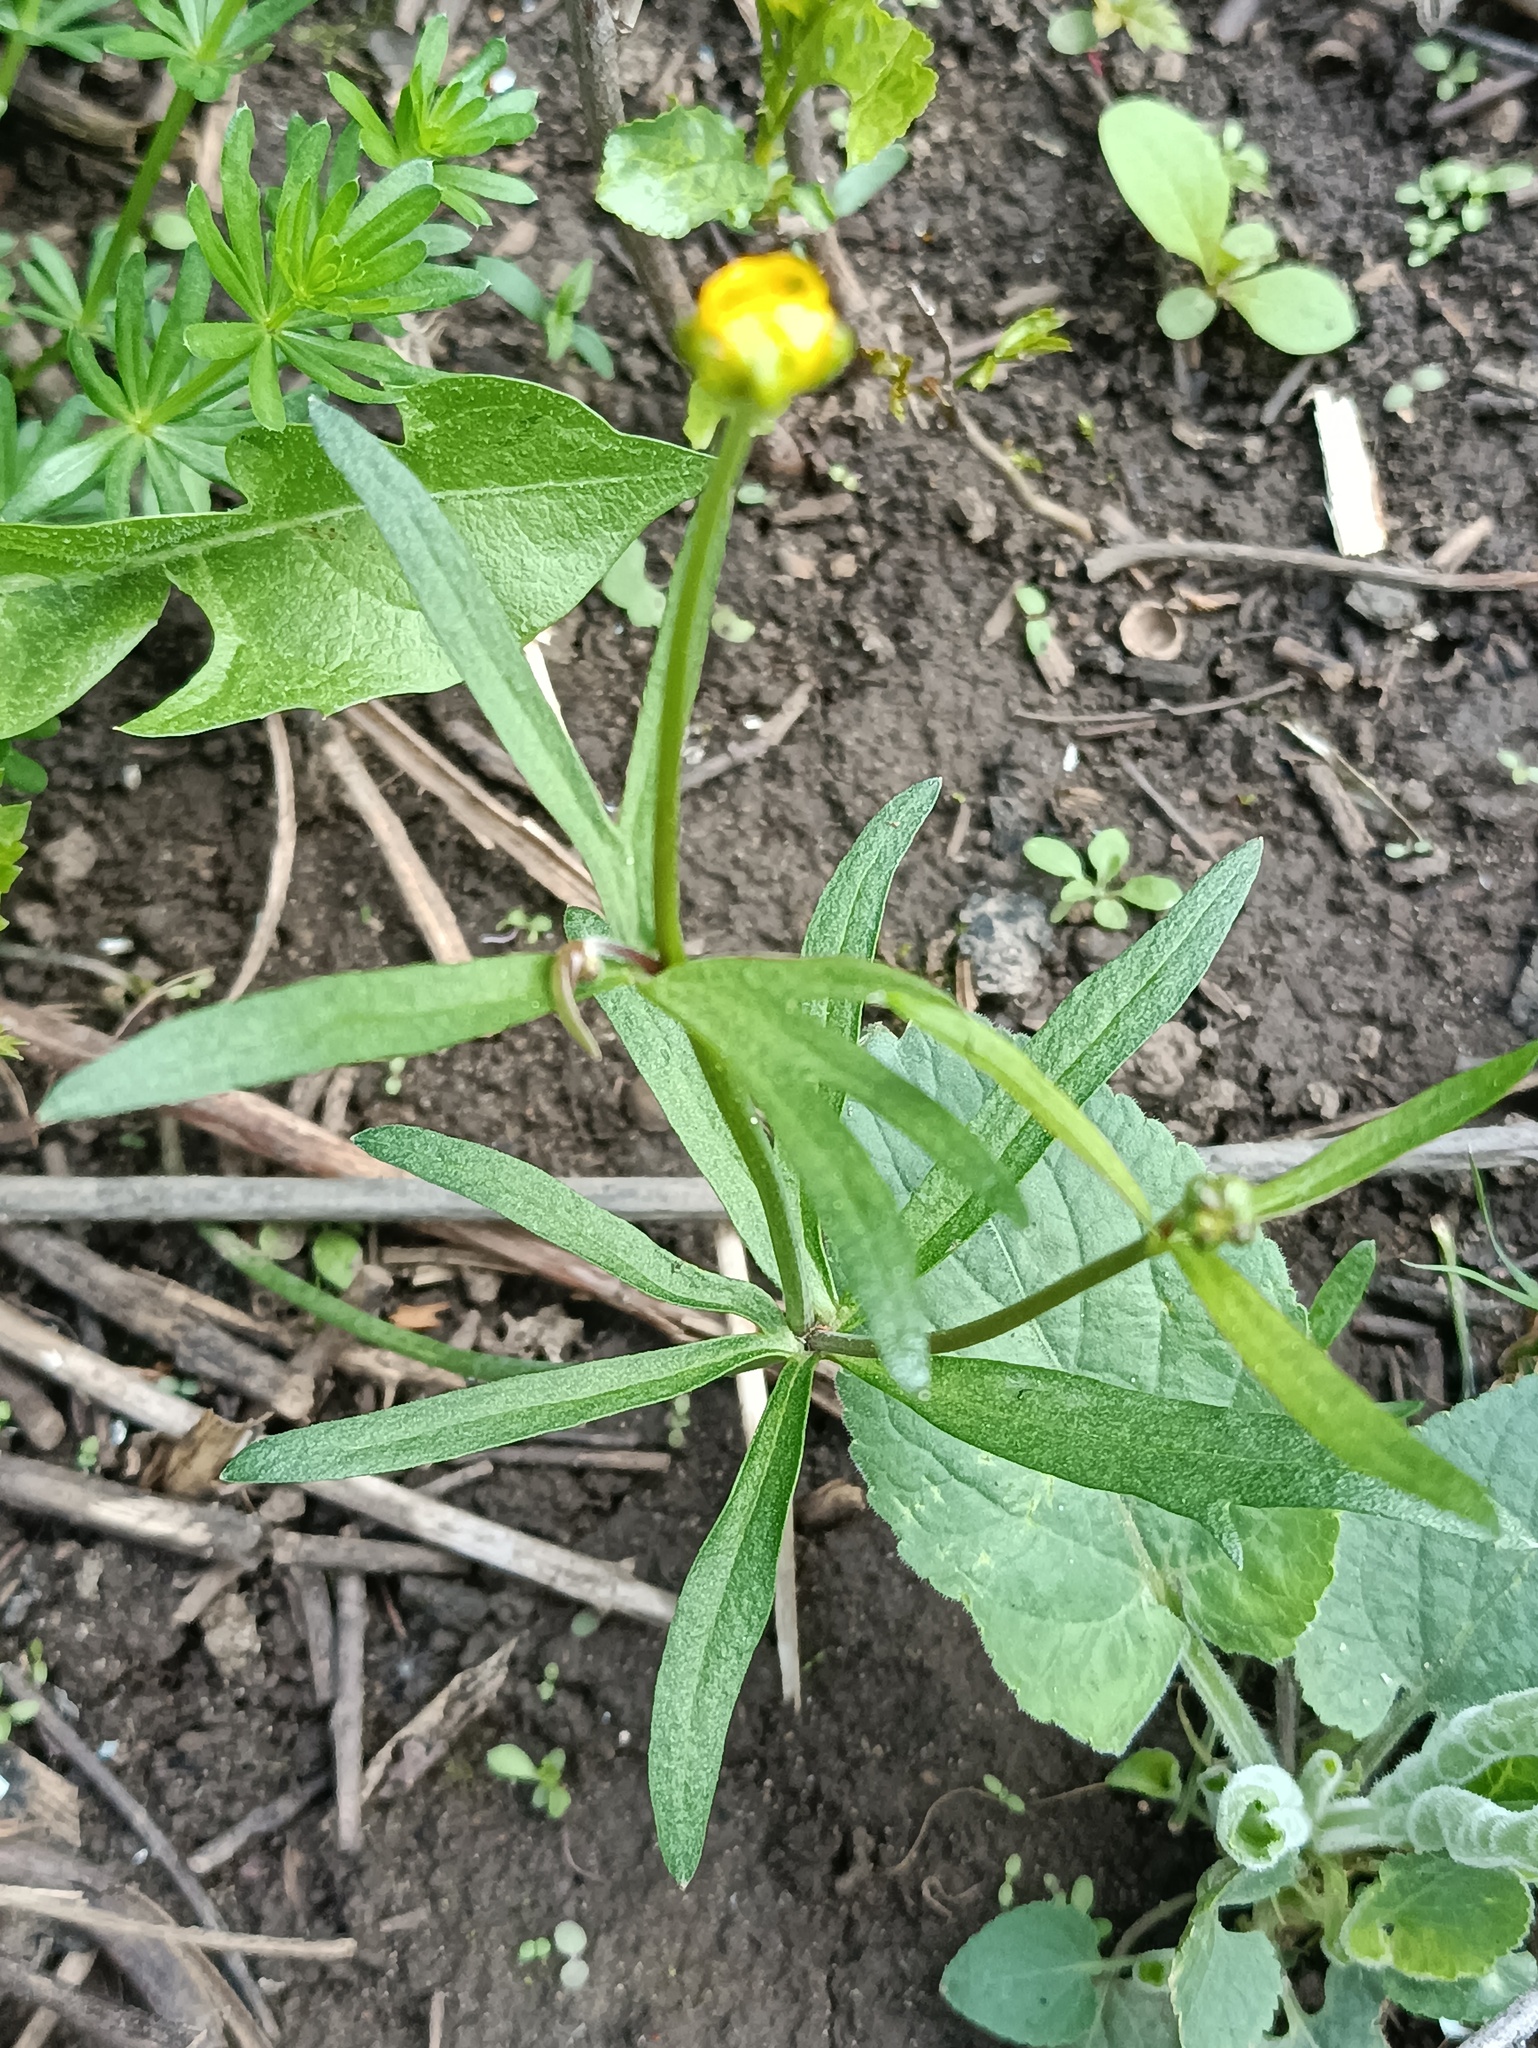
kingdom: Plantae
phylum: Tracheophyta
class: Magnoliopsida
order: Ranunculales
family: Ranunculaceae
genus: Ranunculus
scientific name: Ranunculus auricomus
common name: Goldilocks buttercup
